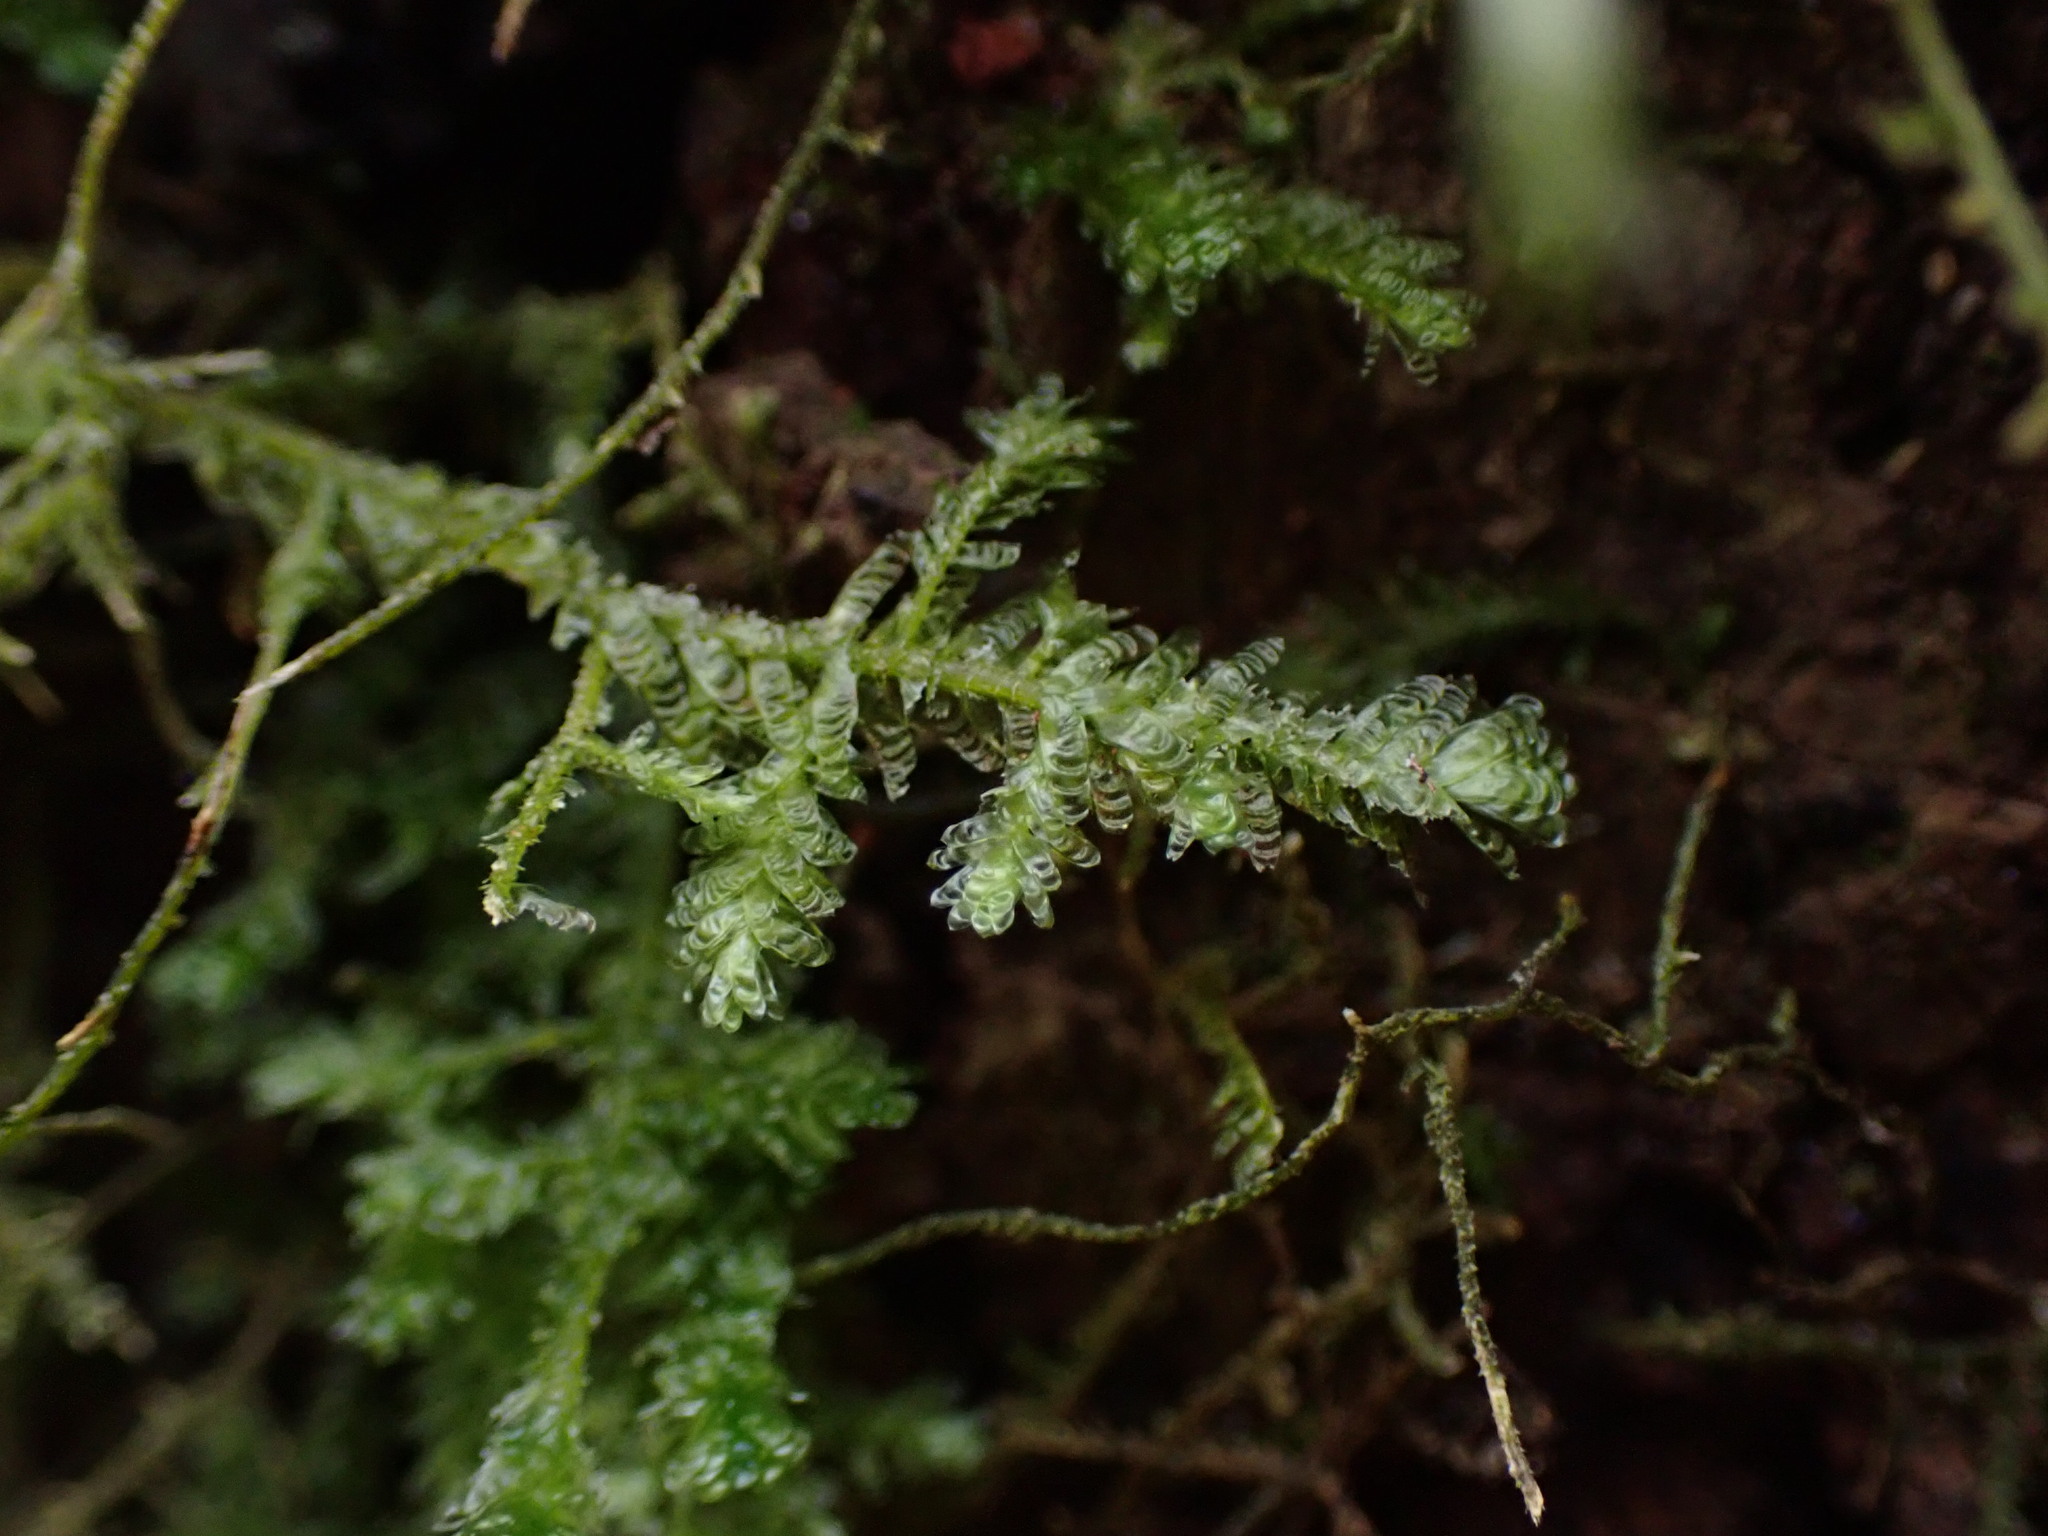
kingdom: Plantae
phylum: Bryophyta
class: Bryopsida
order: Hypnales
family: Neckeraceae
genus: Metaneckera
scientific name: Metaneckera menziesii
